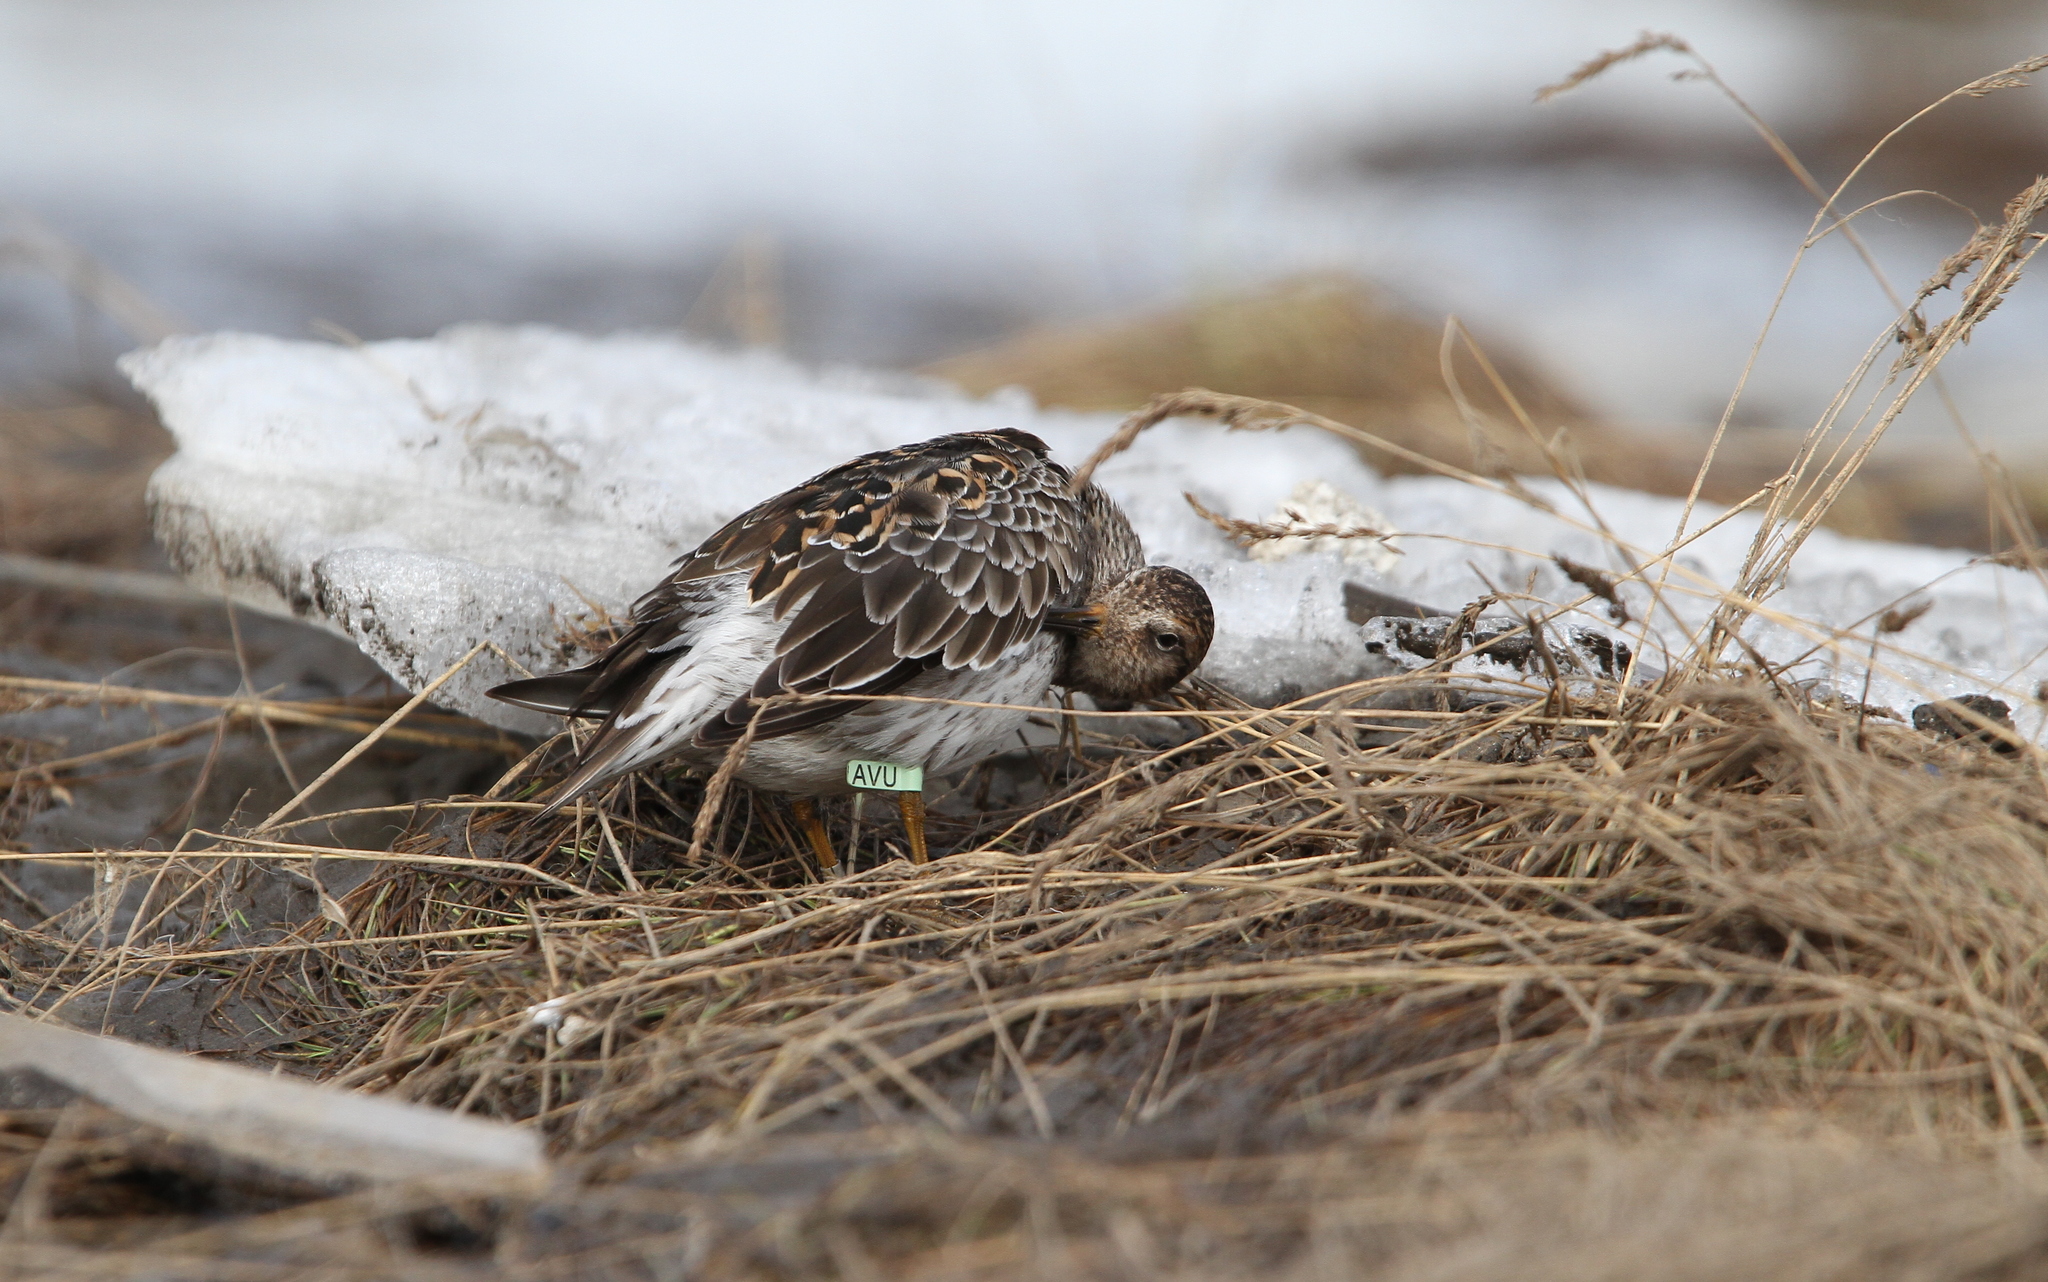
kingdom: Animalia
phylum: Chordata
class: Aves
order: Charadriiformes
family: Scolopacidae
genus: Calidris
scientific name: Calidris maritima
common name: Purple sandpiper
